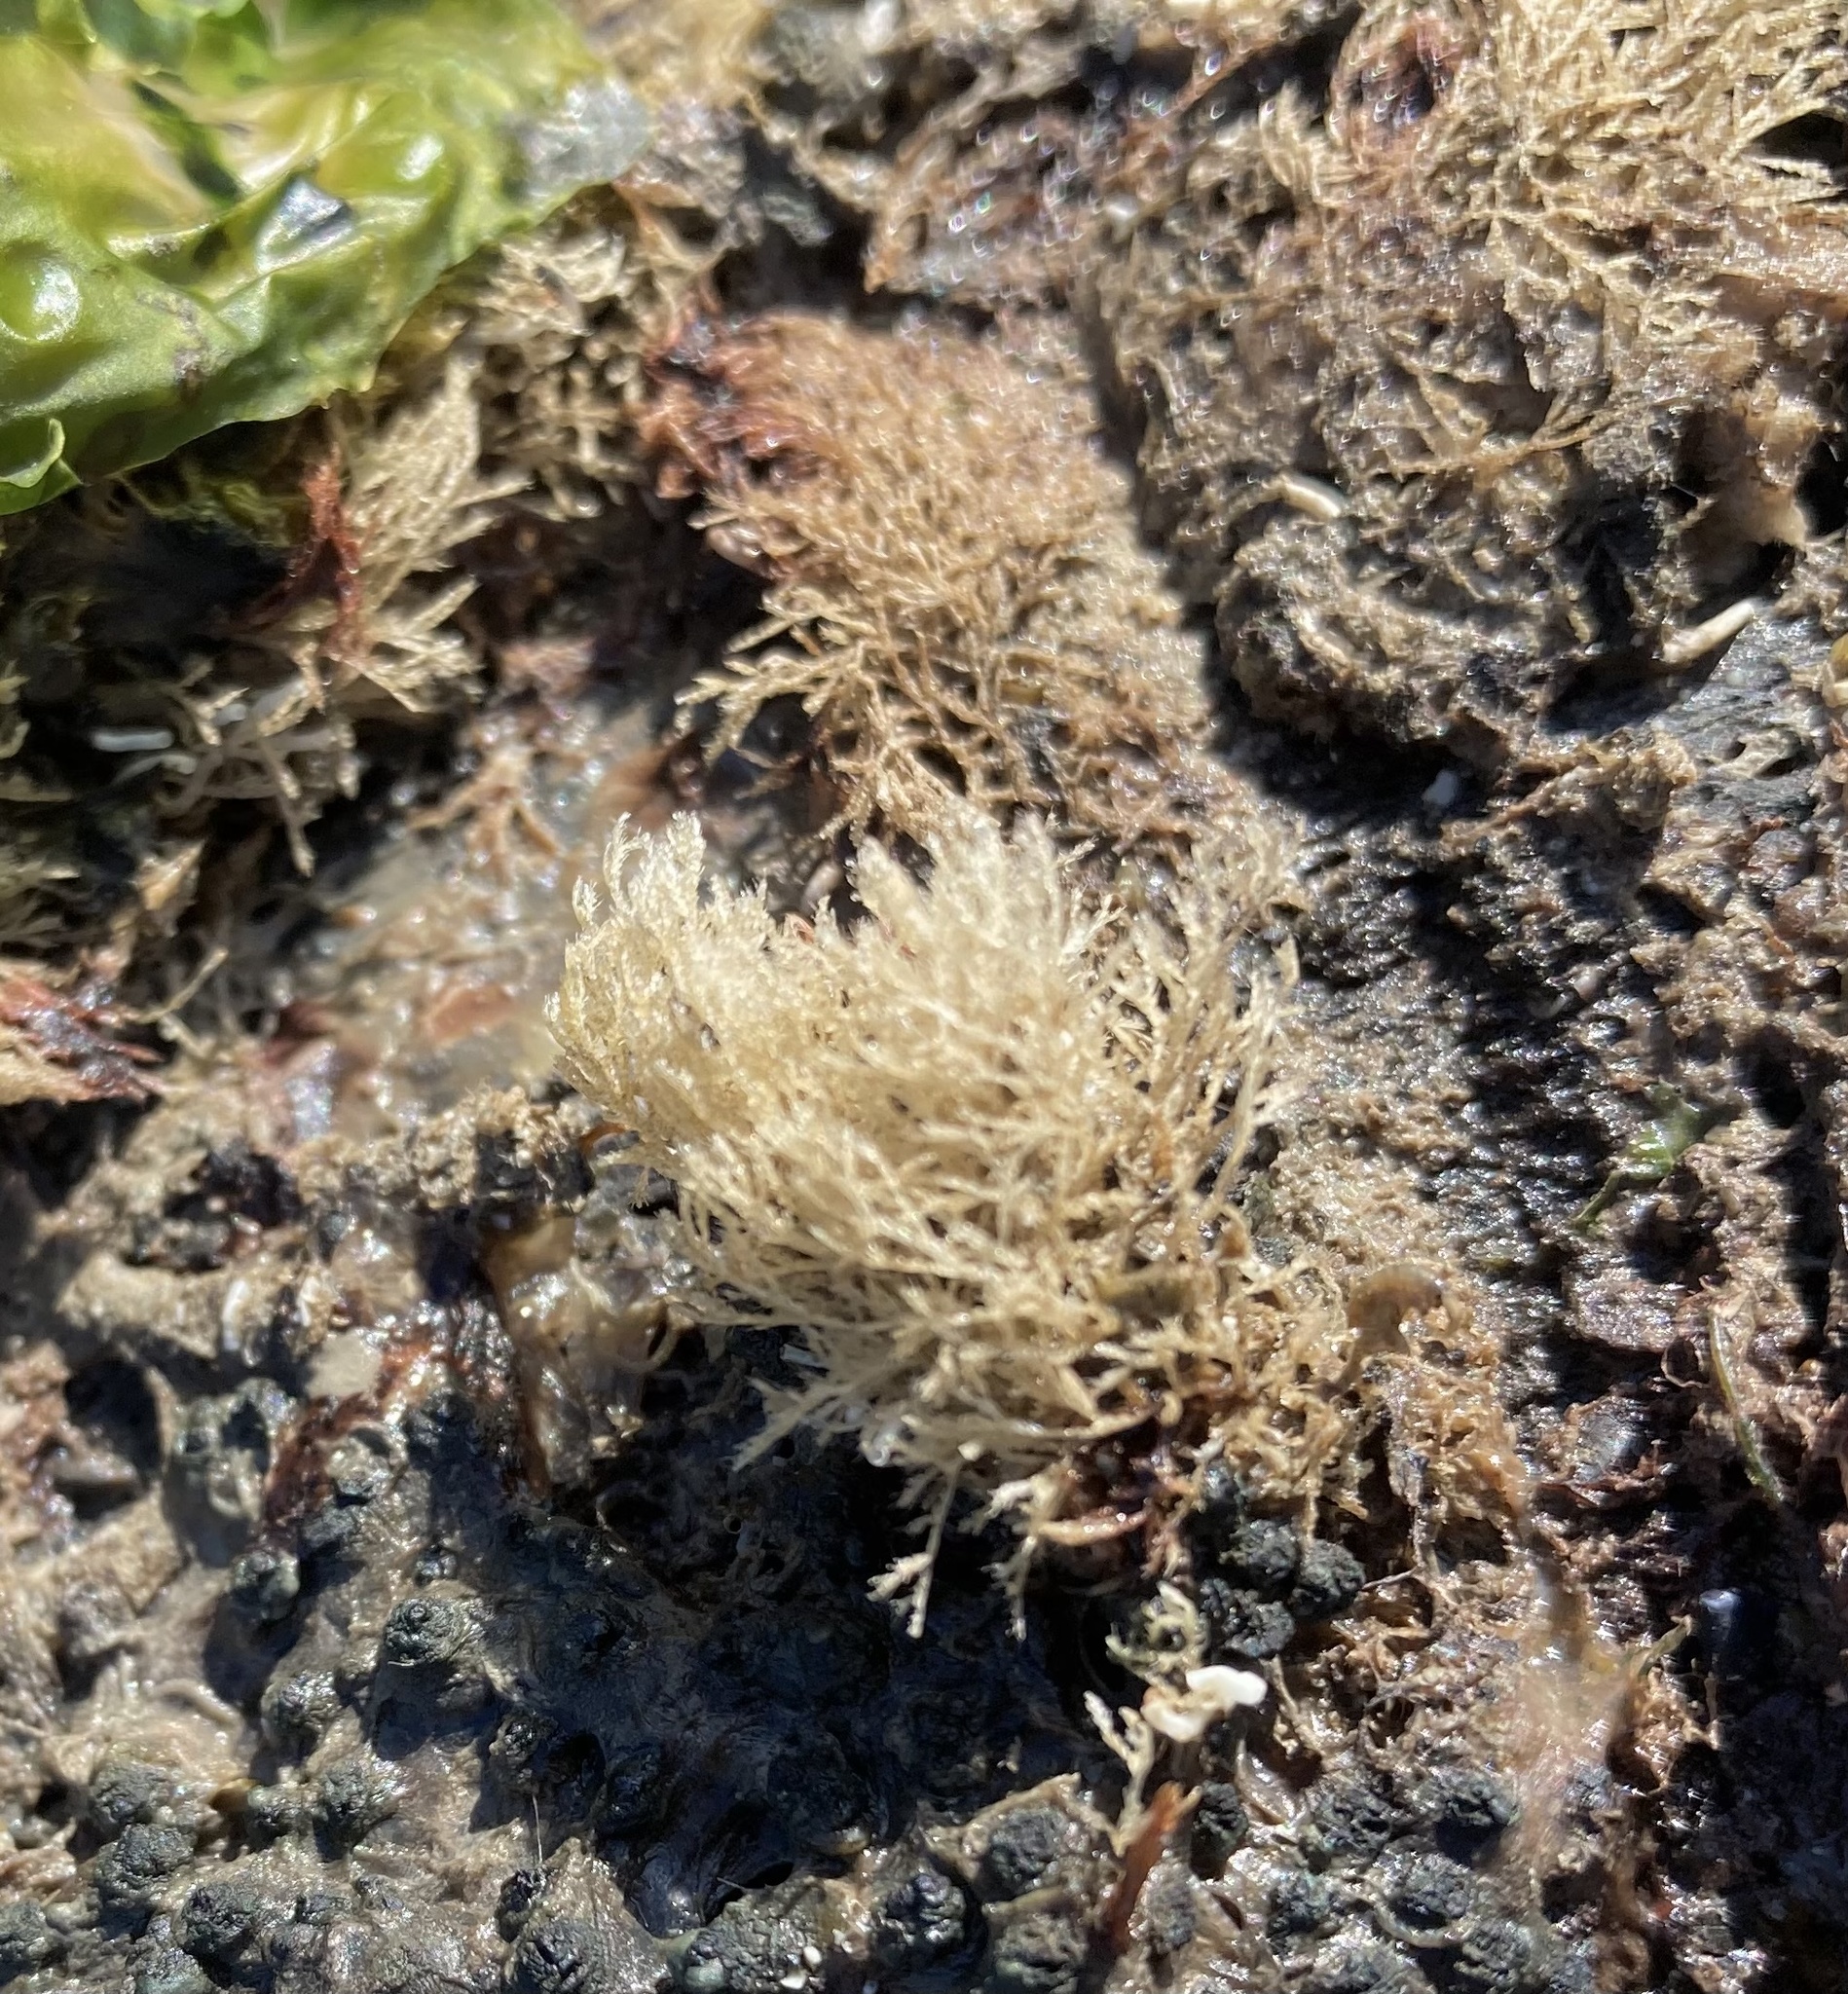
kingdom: Animalia
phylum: Bryozoa
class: Gymnolaemata
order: Cheilostomatida
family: Candidae
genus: Tricellaria
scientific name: Tricellaria inopinata
